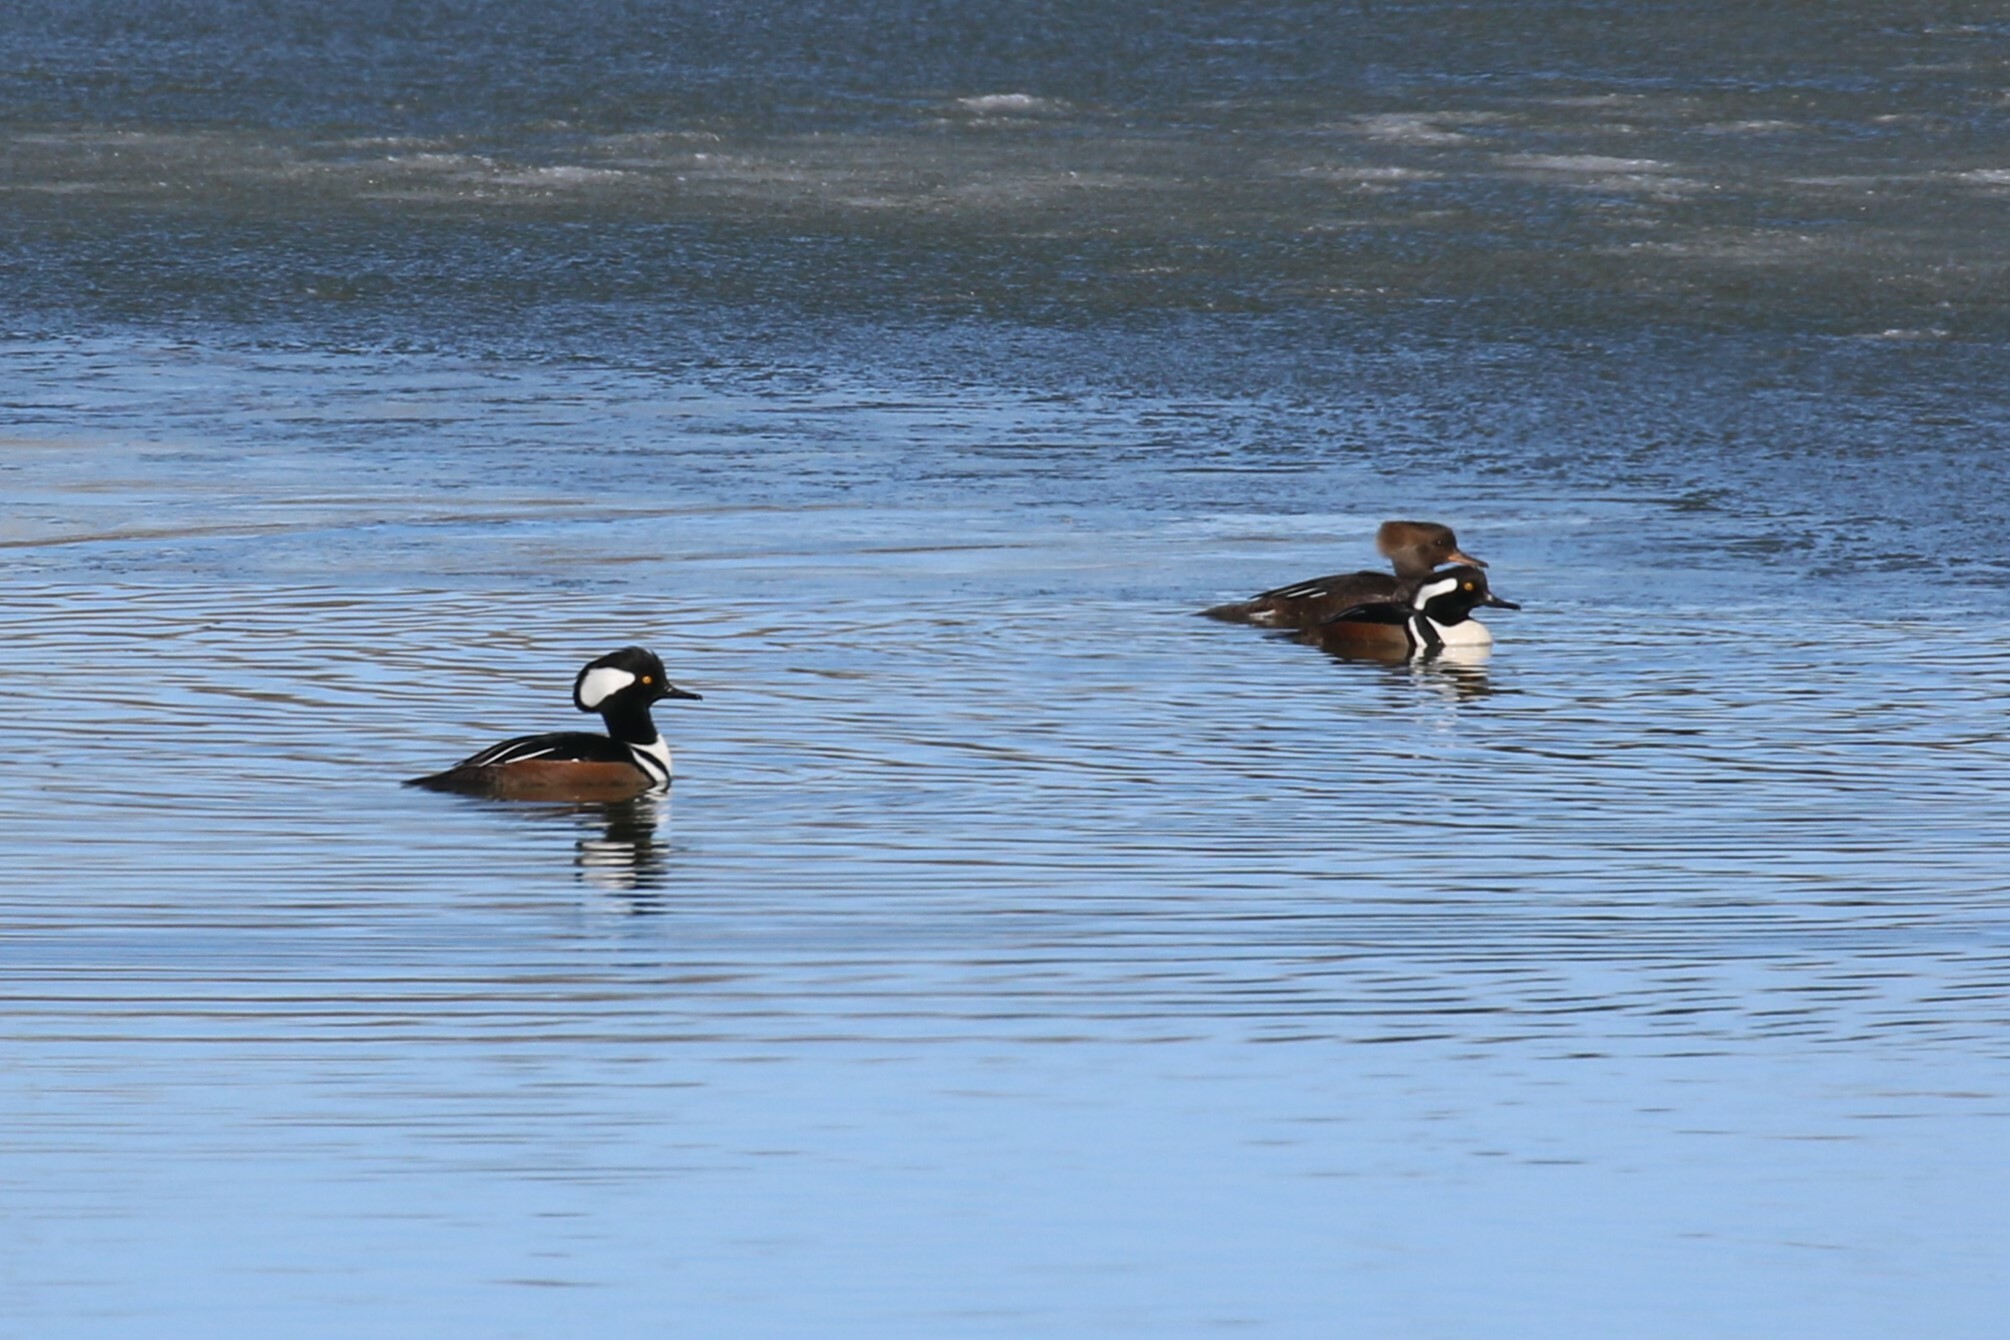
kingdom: Animalia
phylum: Chordata
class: Aves
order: Anseriformes
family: Anatidae
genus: Lophodytes
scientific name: Lophodytes cucullatus
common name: Hooded merganser
